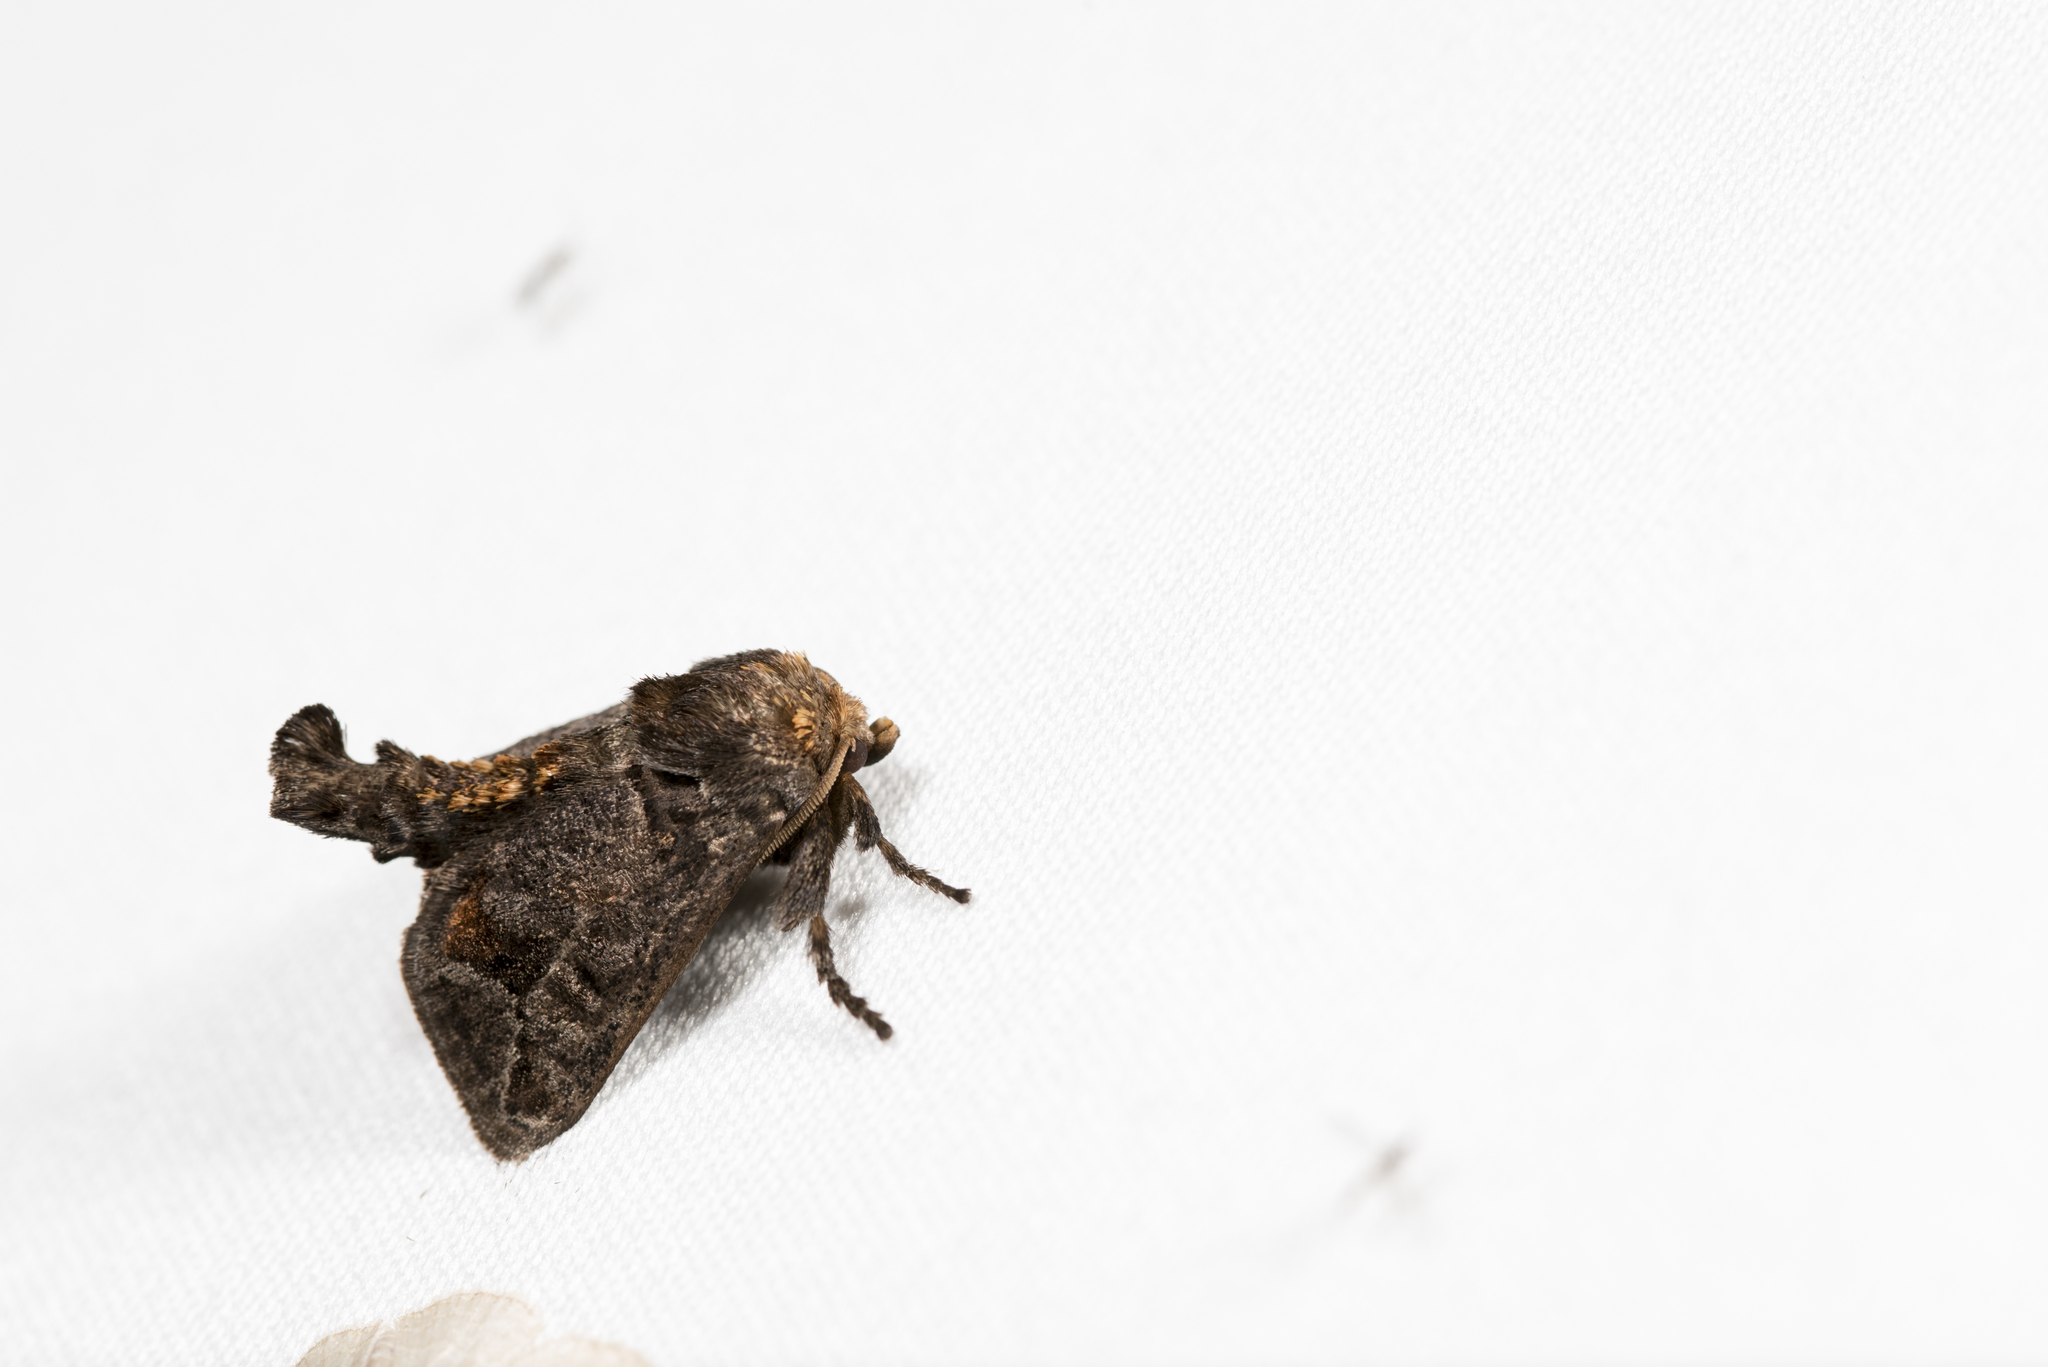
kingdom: Animalia
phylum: Arthropoda
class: Insecta
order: Lepidoptera
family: Limacodidae
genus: Phlossa
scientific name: Phlossa conjuncta
